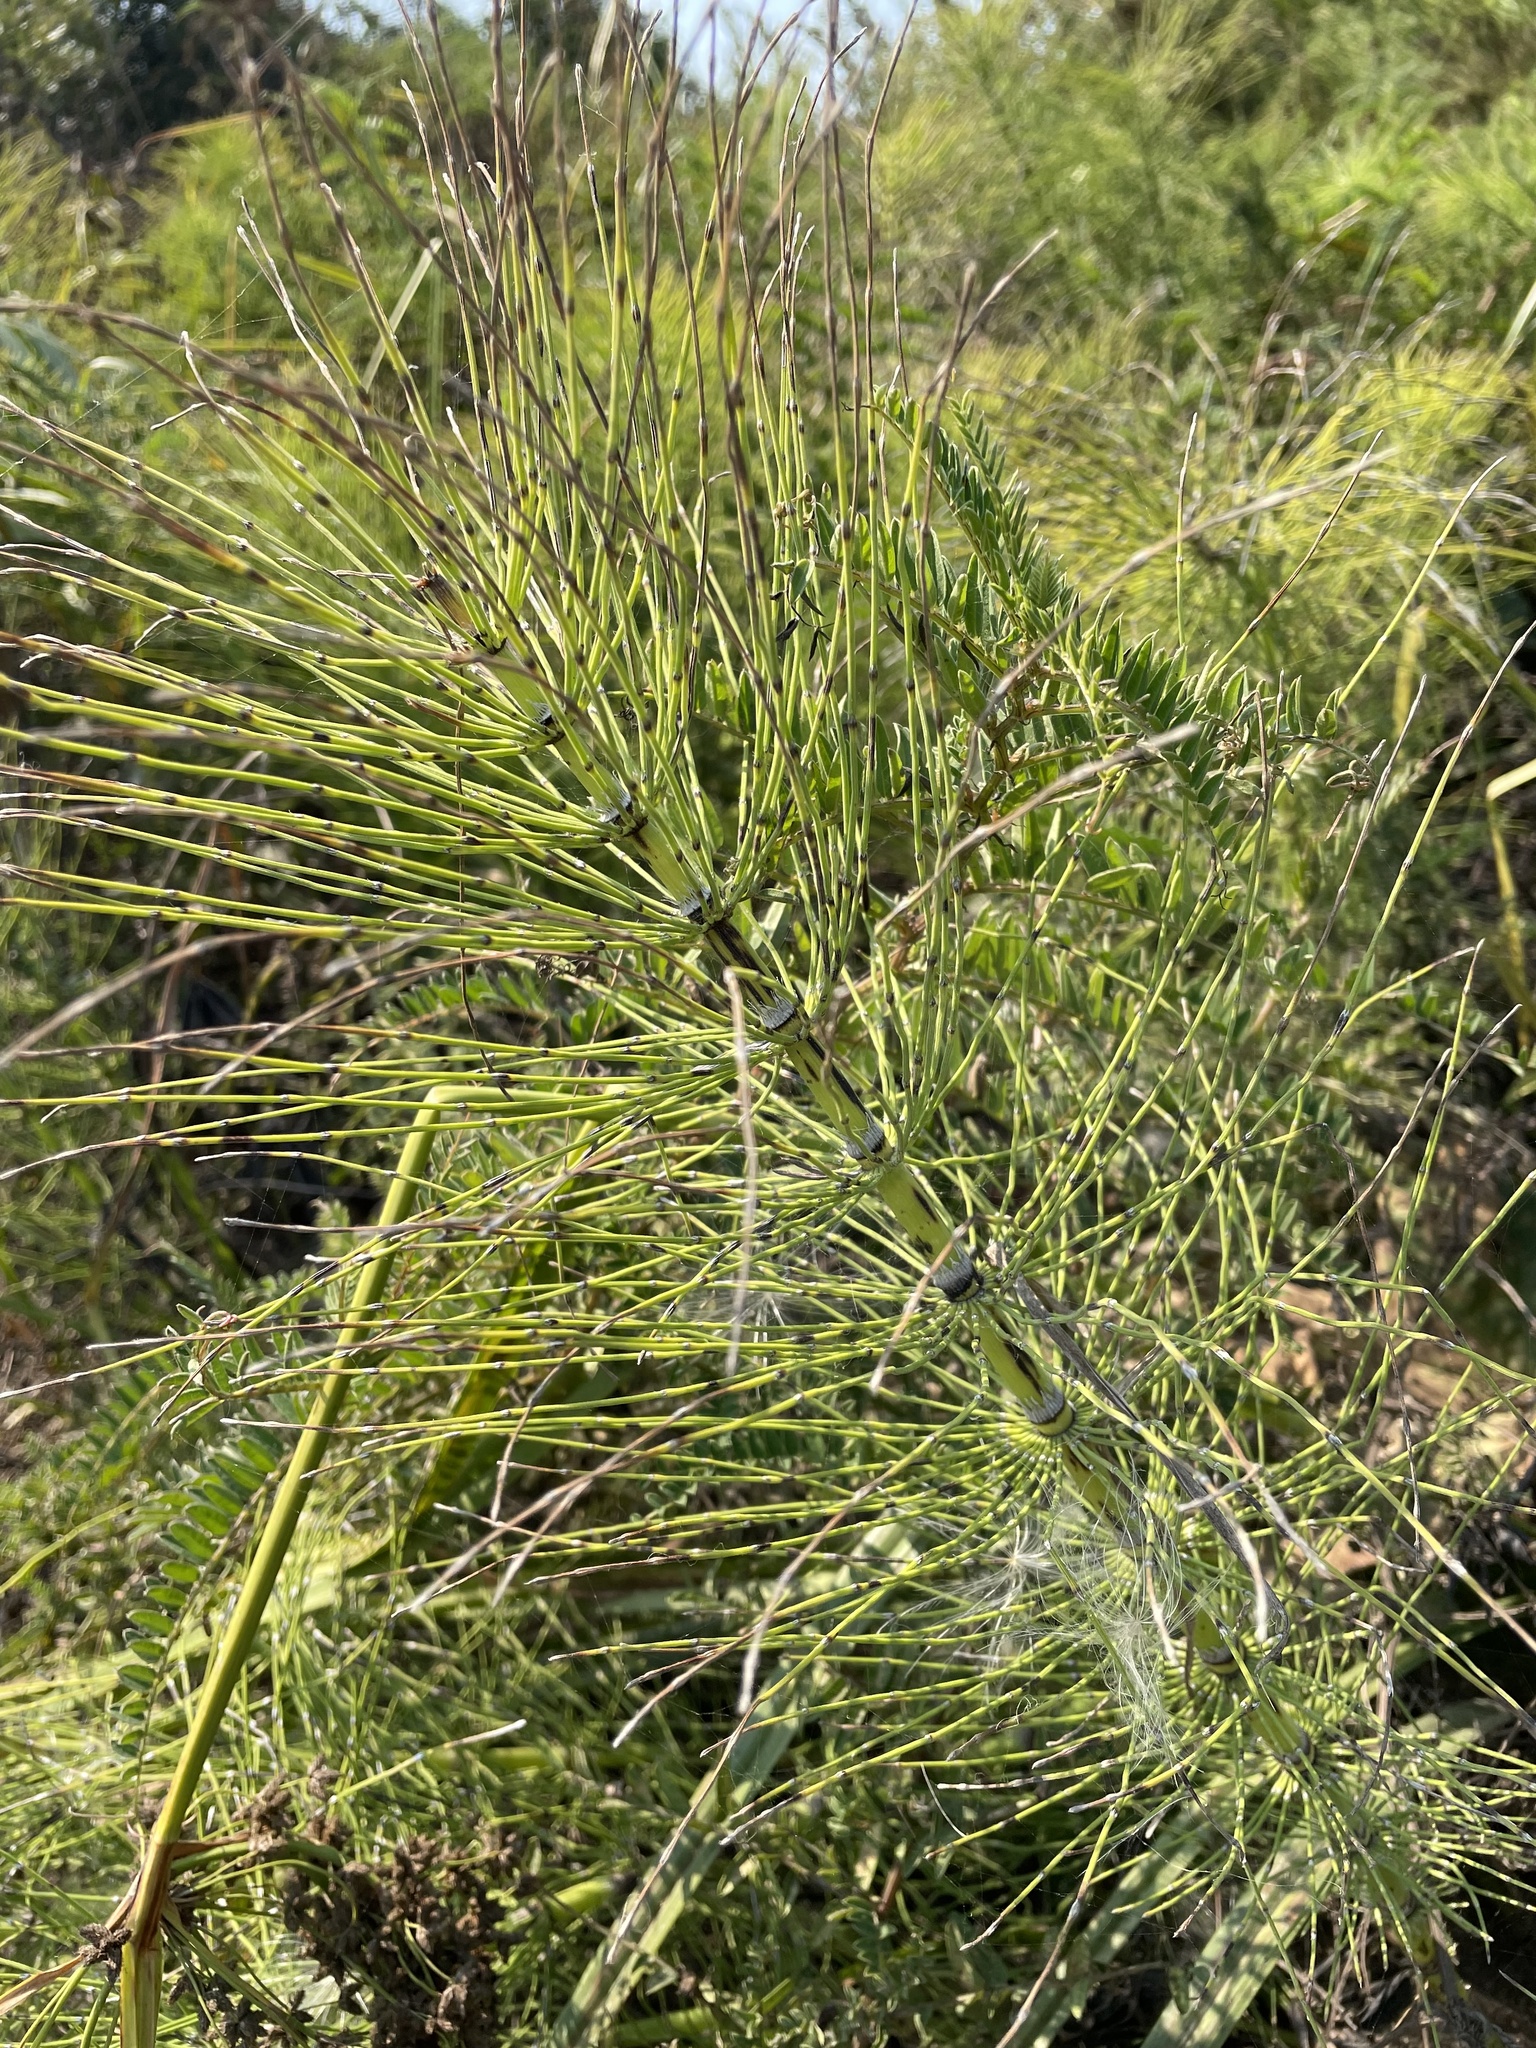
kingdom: Plantae
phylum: Tracheophyta
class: Polypodiopsida
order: Equisetales
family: Equisetaceae
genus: Equisetum
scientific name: Equisetum telmateia
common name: Great horsetail
